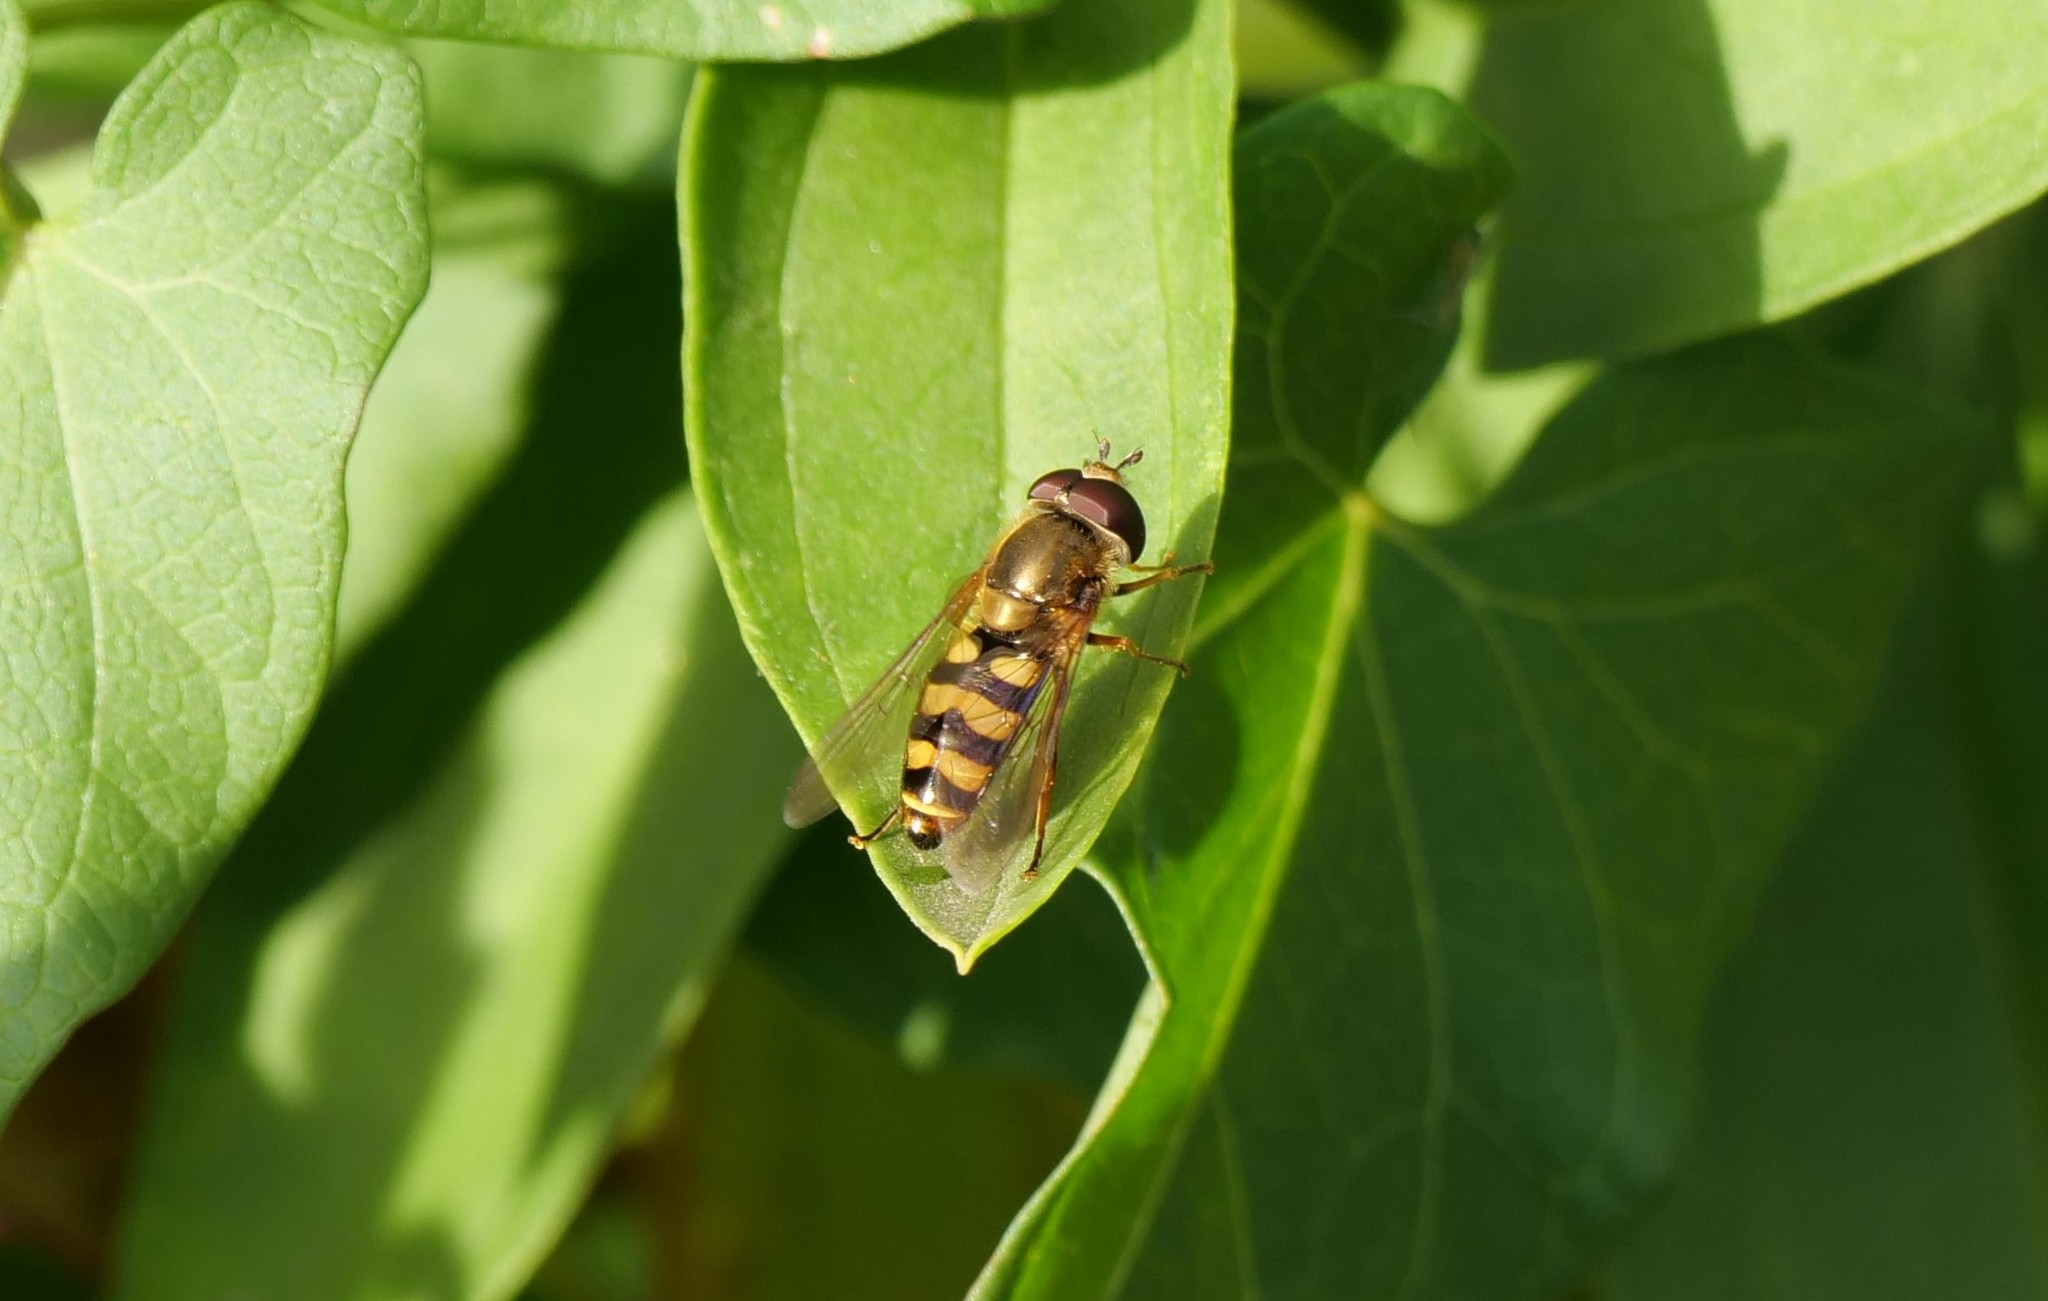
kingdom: Animalia
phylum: Arthropoda
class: Insecta
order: Diptera
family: Syrphidae
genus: Eupeodes
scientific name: Eupeodes fumipennis
